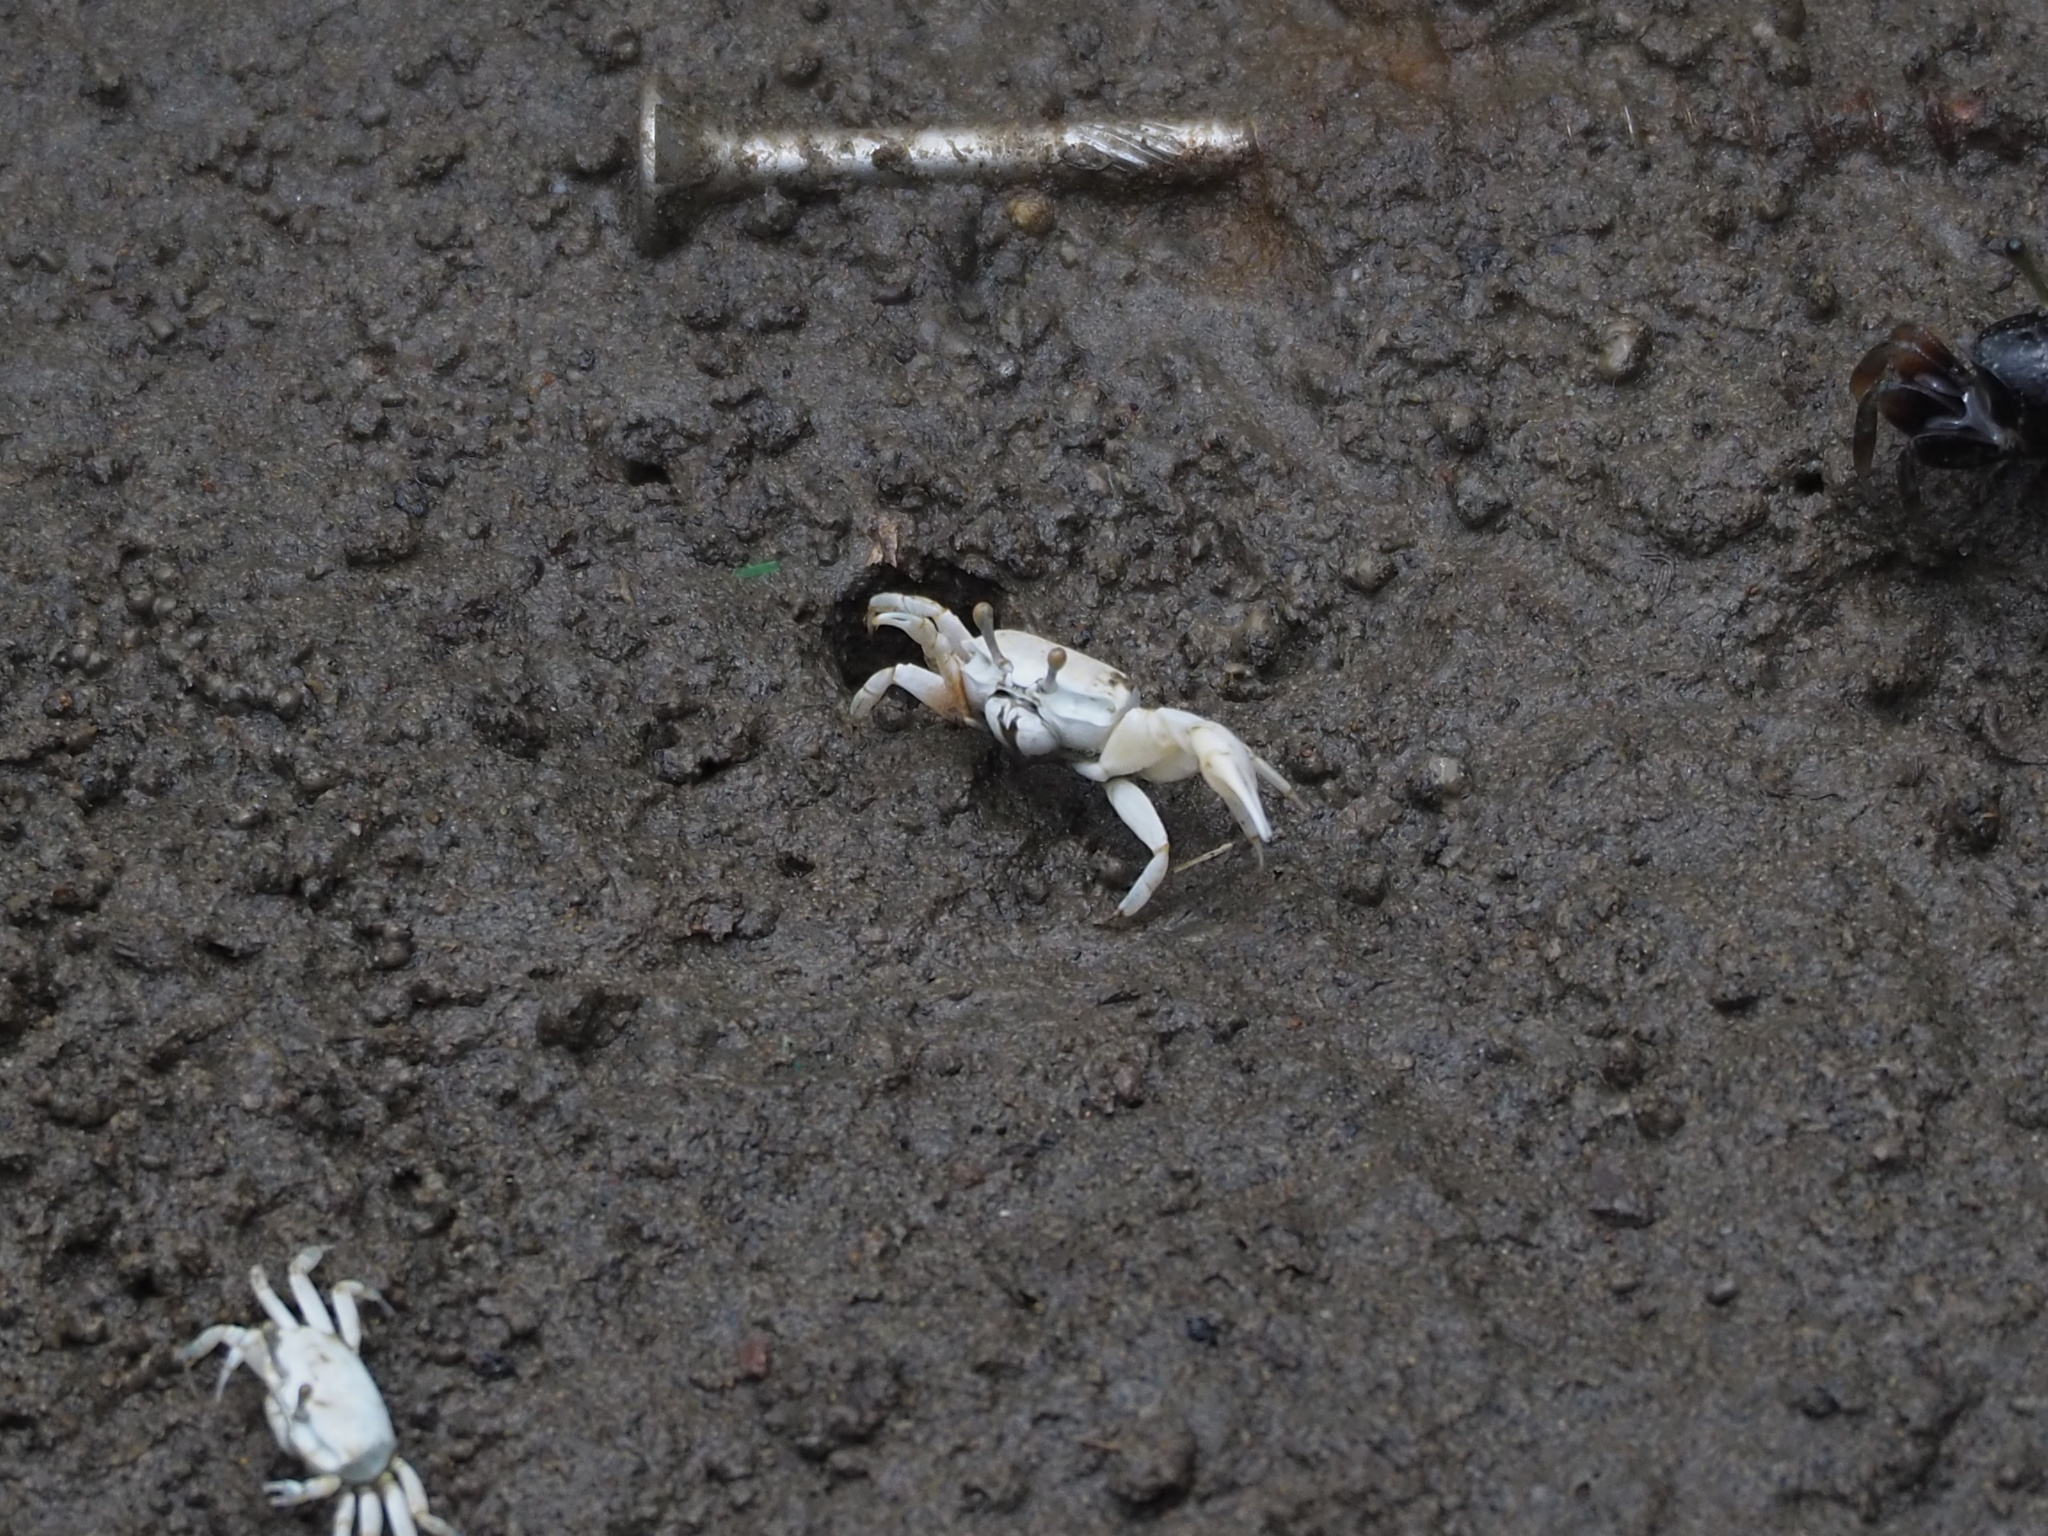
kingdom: Animalia
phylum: Arthropoda
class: Malacostraca
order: Decapoda
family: Ocypodidae
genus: Austruca
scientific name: Austruca lactea
